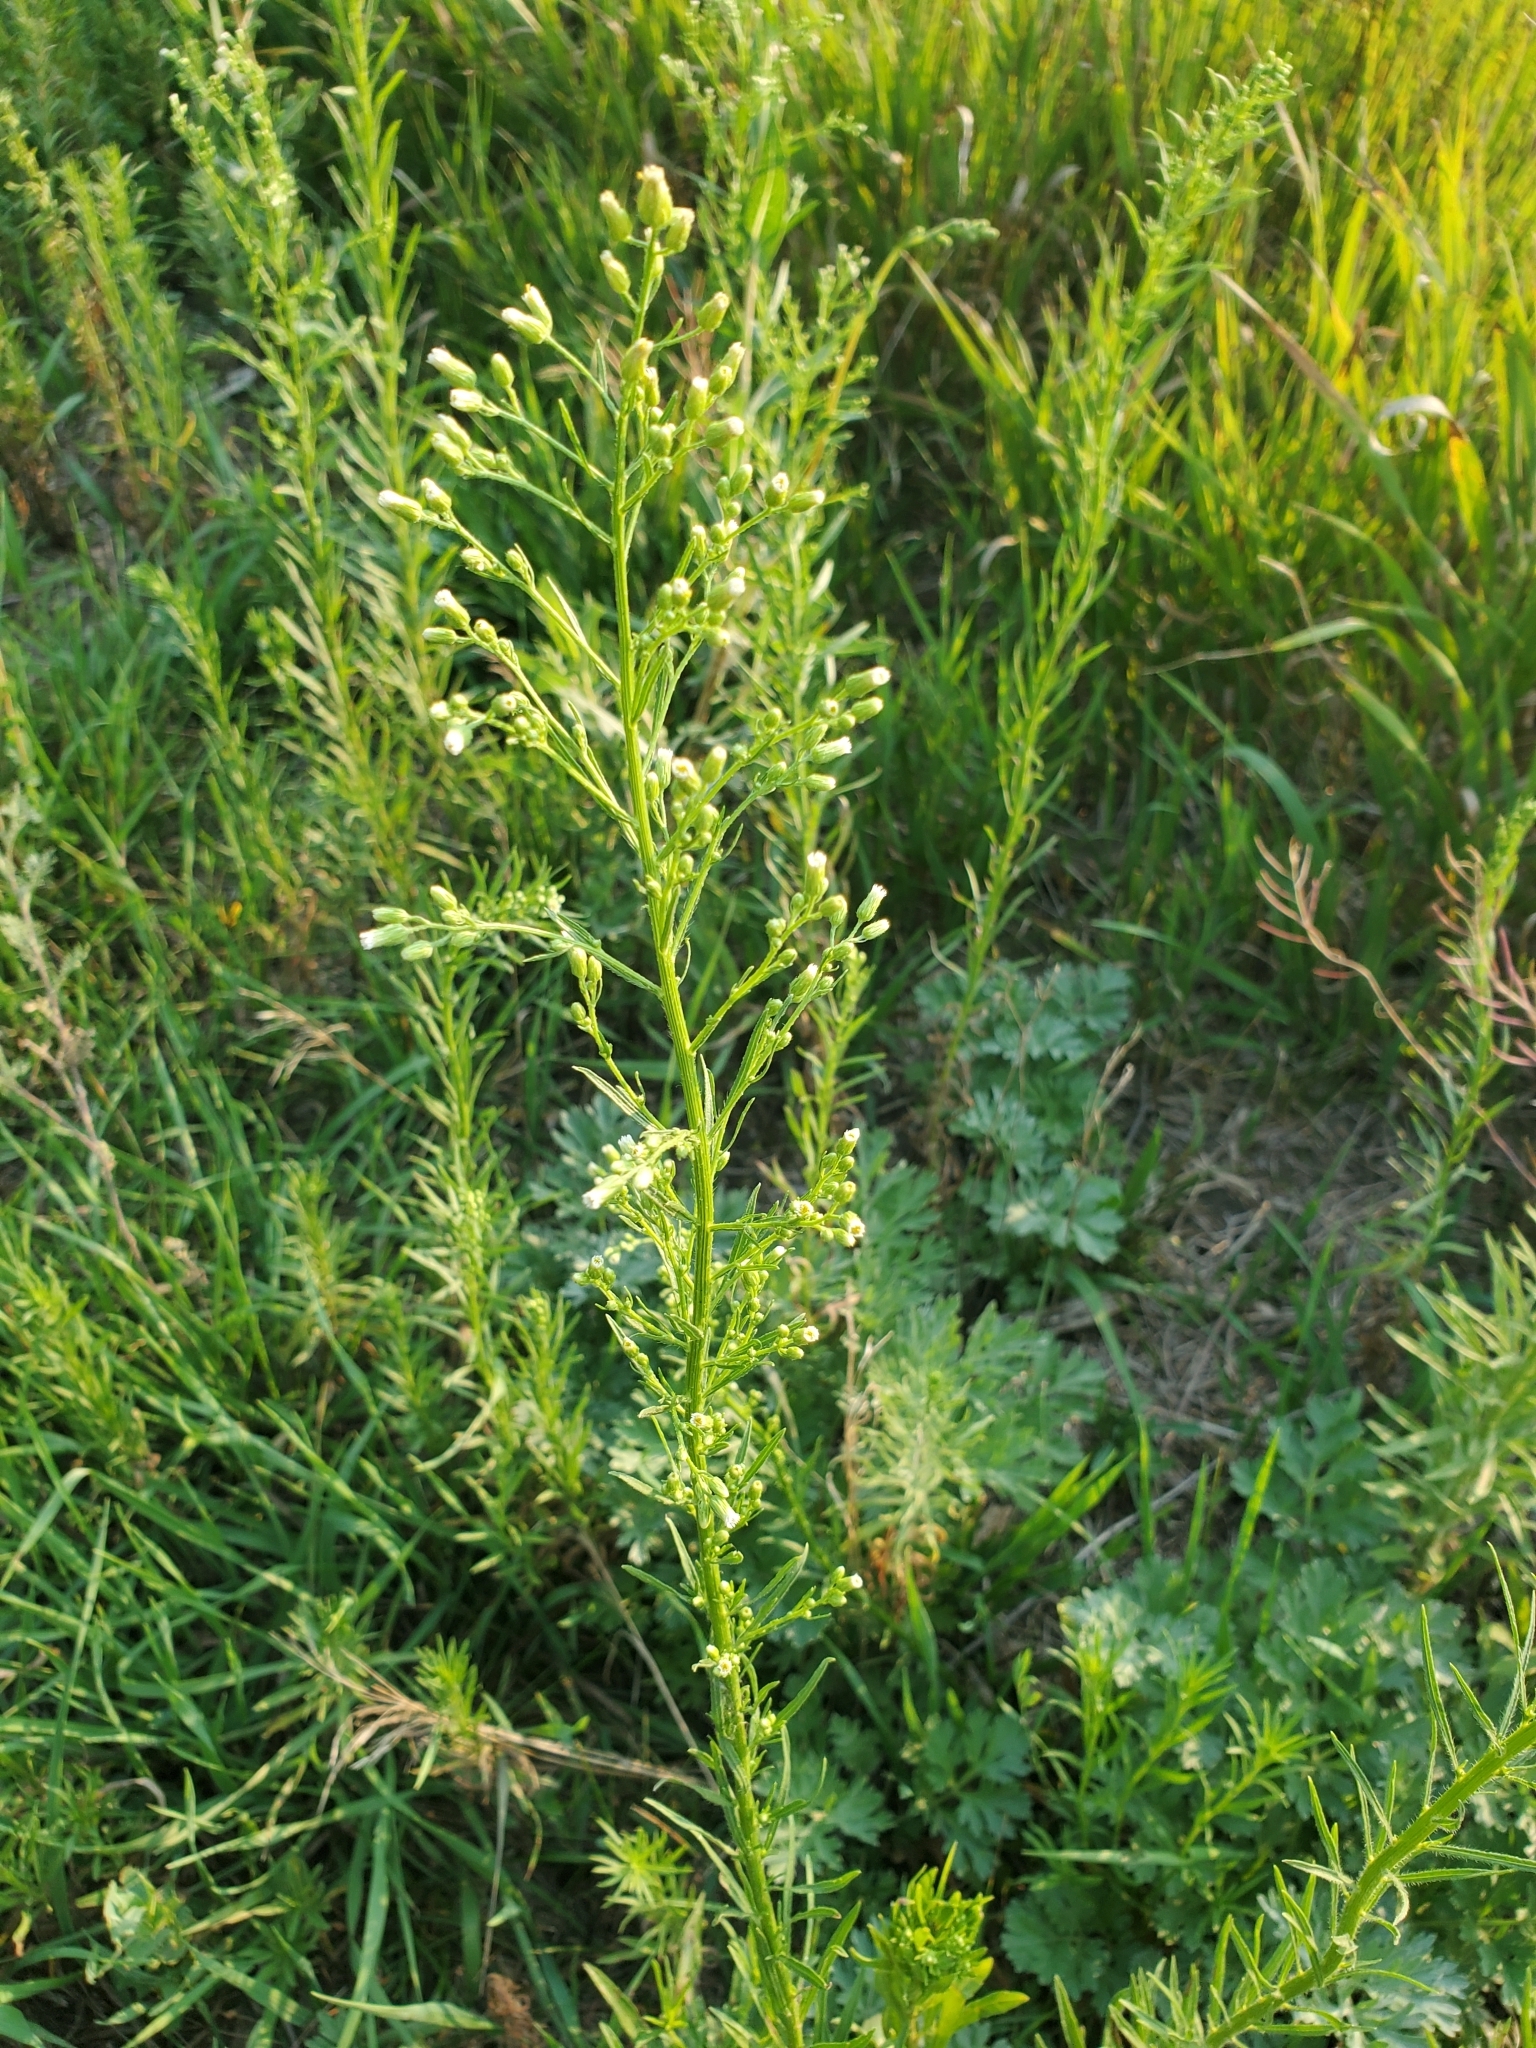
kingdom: Plantae
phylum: Tracheophyta
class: Magnoliopsida
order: Asterales
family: Asteraceae
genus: Erigeron
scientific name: Erigeron canadensis
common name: Canadian fleabane
